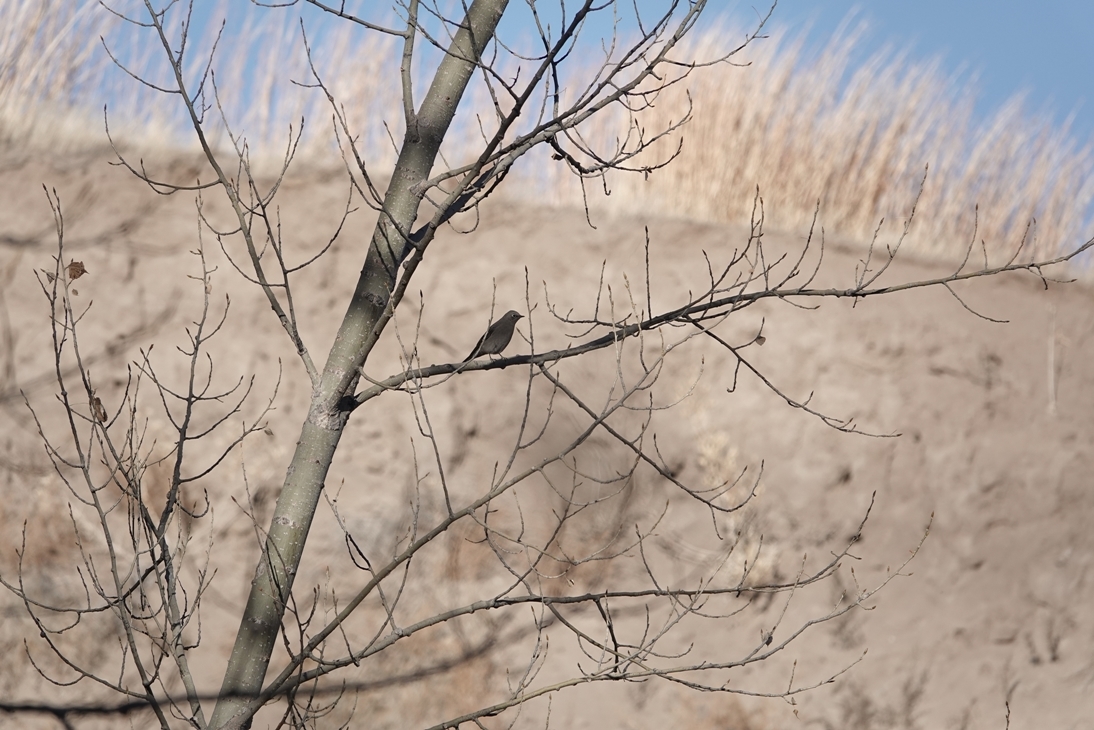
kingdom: Animalia
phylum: Chordata
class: Aves
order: Passeriformes
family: Turdidae
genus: Myadestes
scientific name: Myadestes townsendi
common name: Townsend's solitaire
